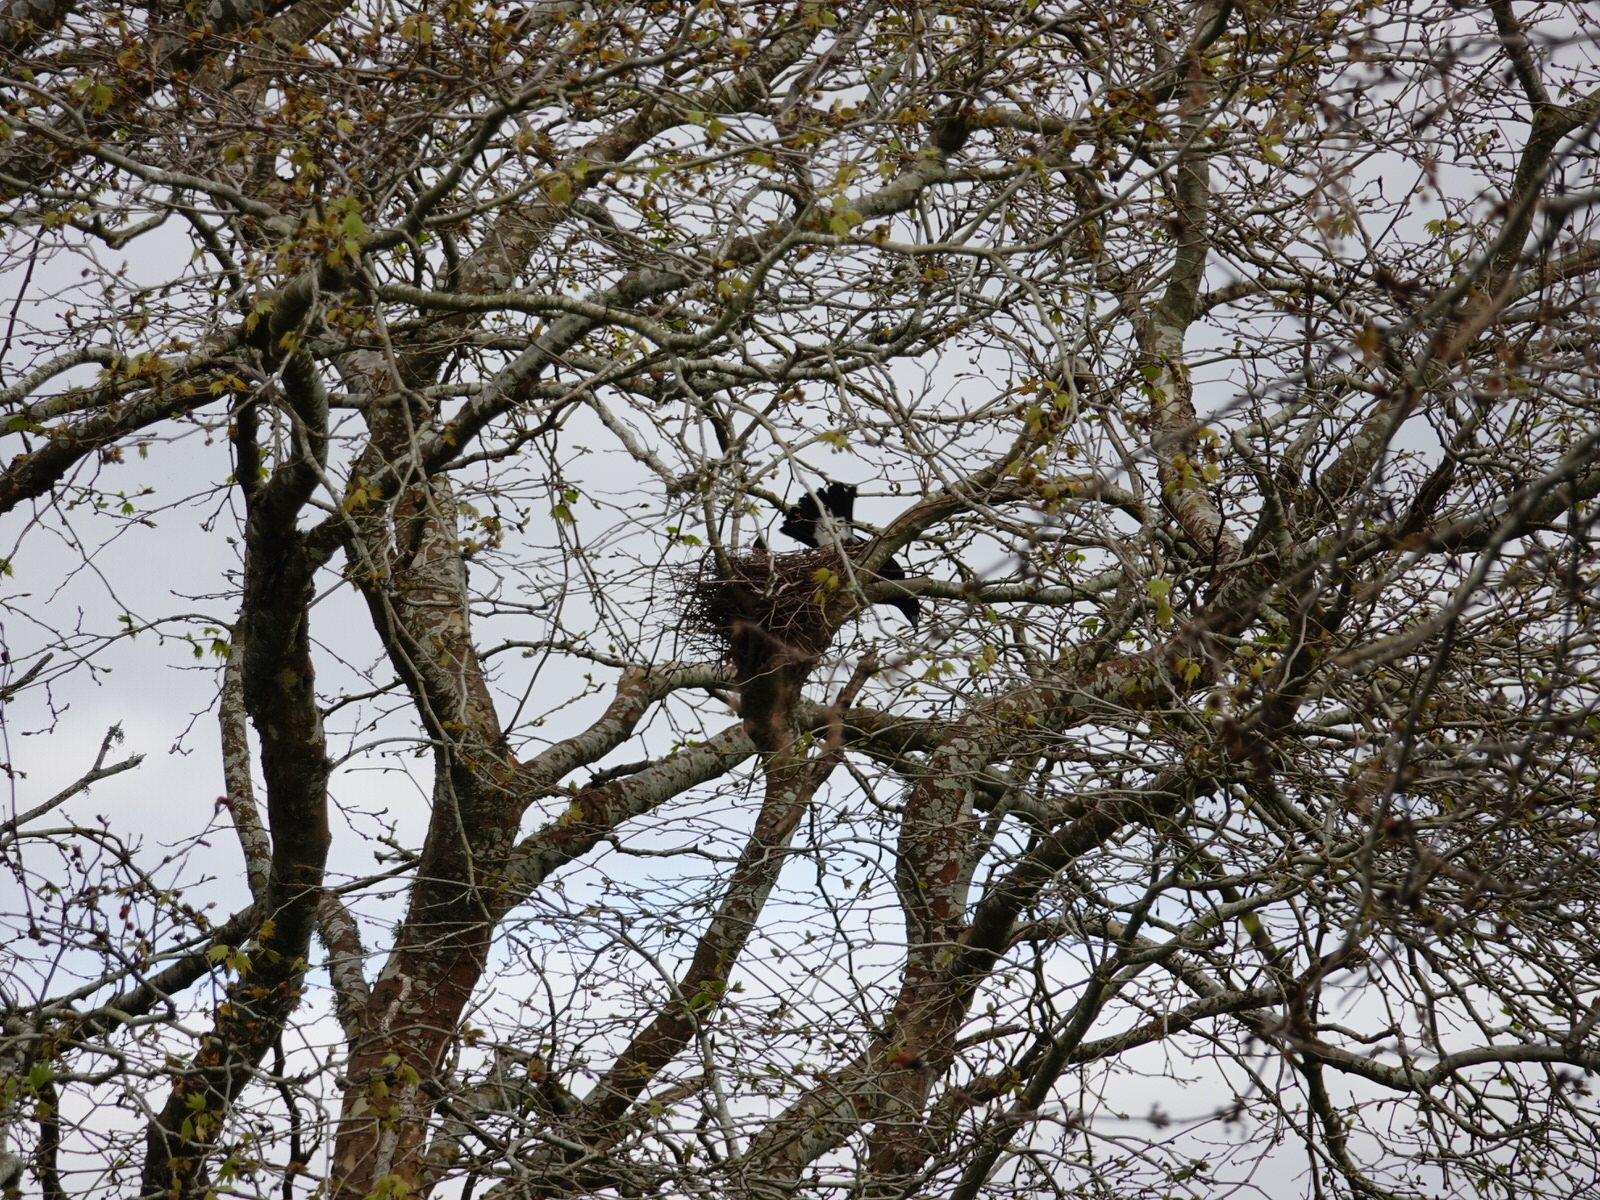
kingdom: Animalia
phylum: Chordata
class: Aves
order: Passeriformes
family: Cracticidae
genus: Gymnorhina
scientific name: Gymnorhina tibicen
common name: Australian magpie
